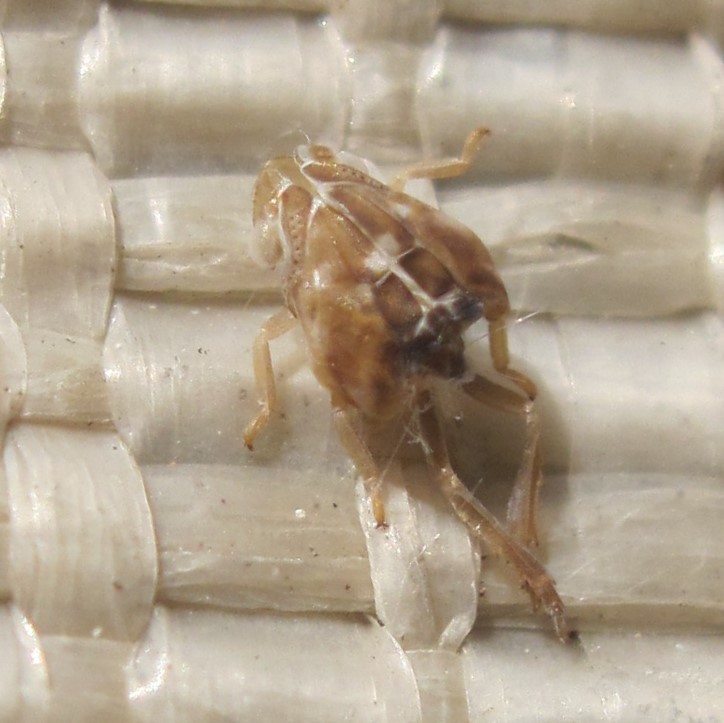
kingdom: Animalia
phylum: Arthropoda
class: Insecta
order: Hemiptera
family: Ricaniidae
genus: Scolypopa
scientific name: Scolypopa australis
